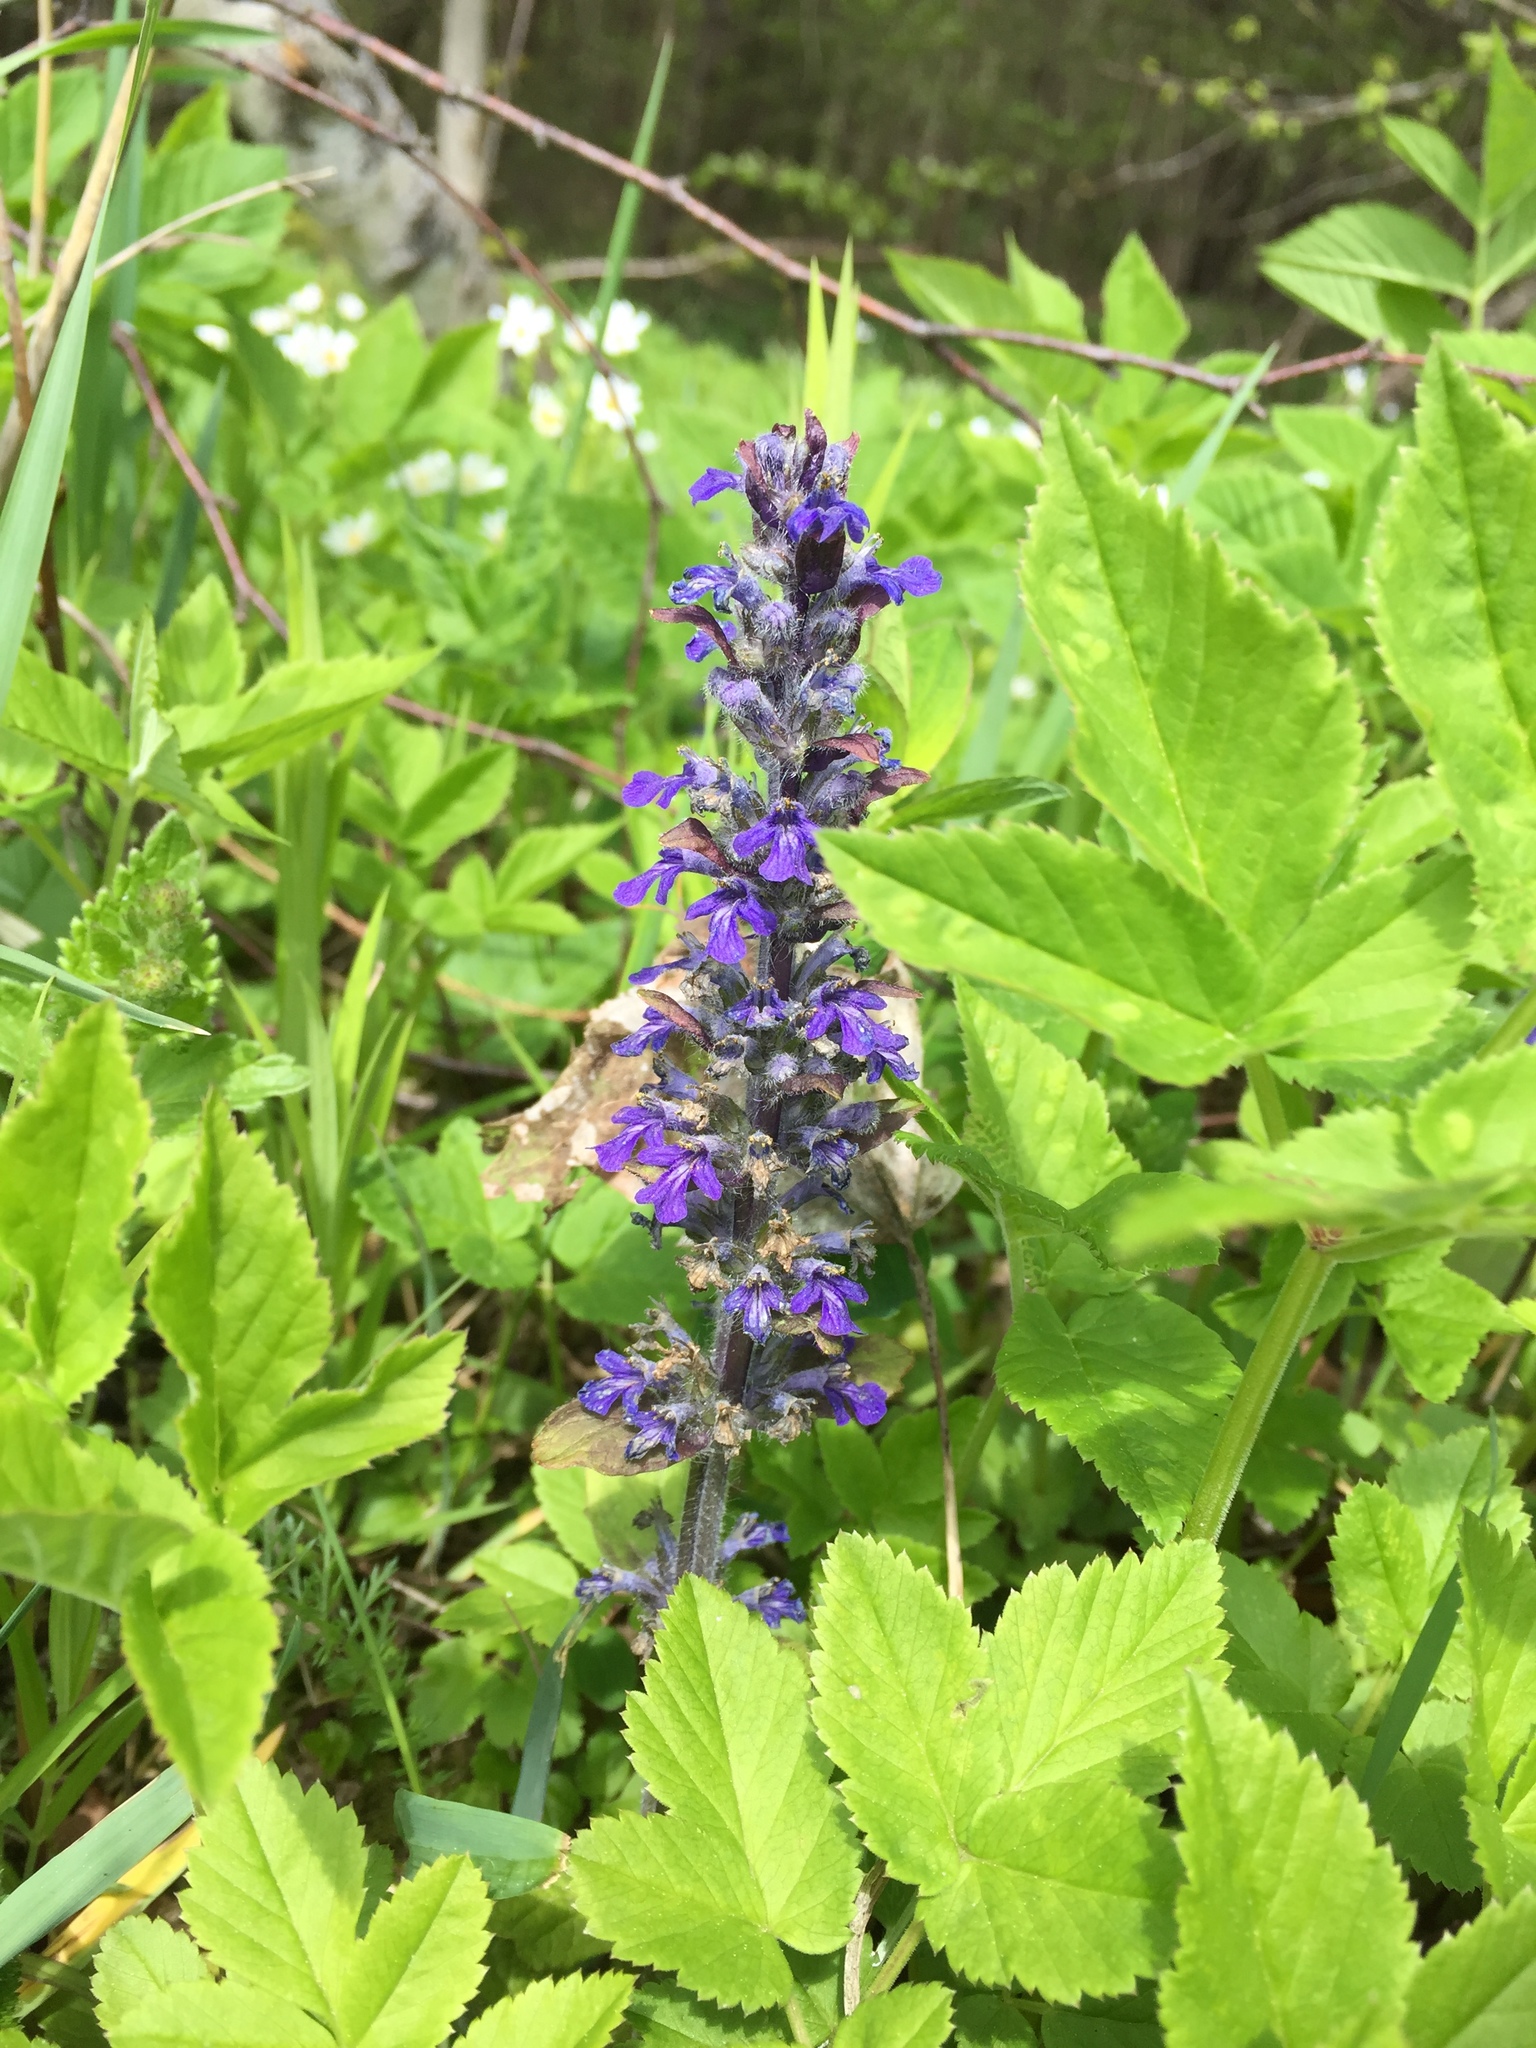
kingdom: Plantae
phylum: Tracheophyta
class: Magnoliopsida
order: Lamiales
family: Lamiaceae
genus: Ajuga
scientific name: Ajuga reptans
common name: Bugle
